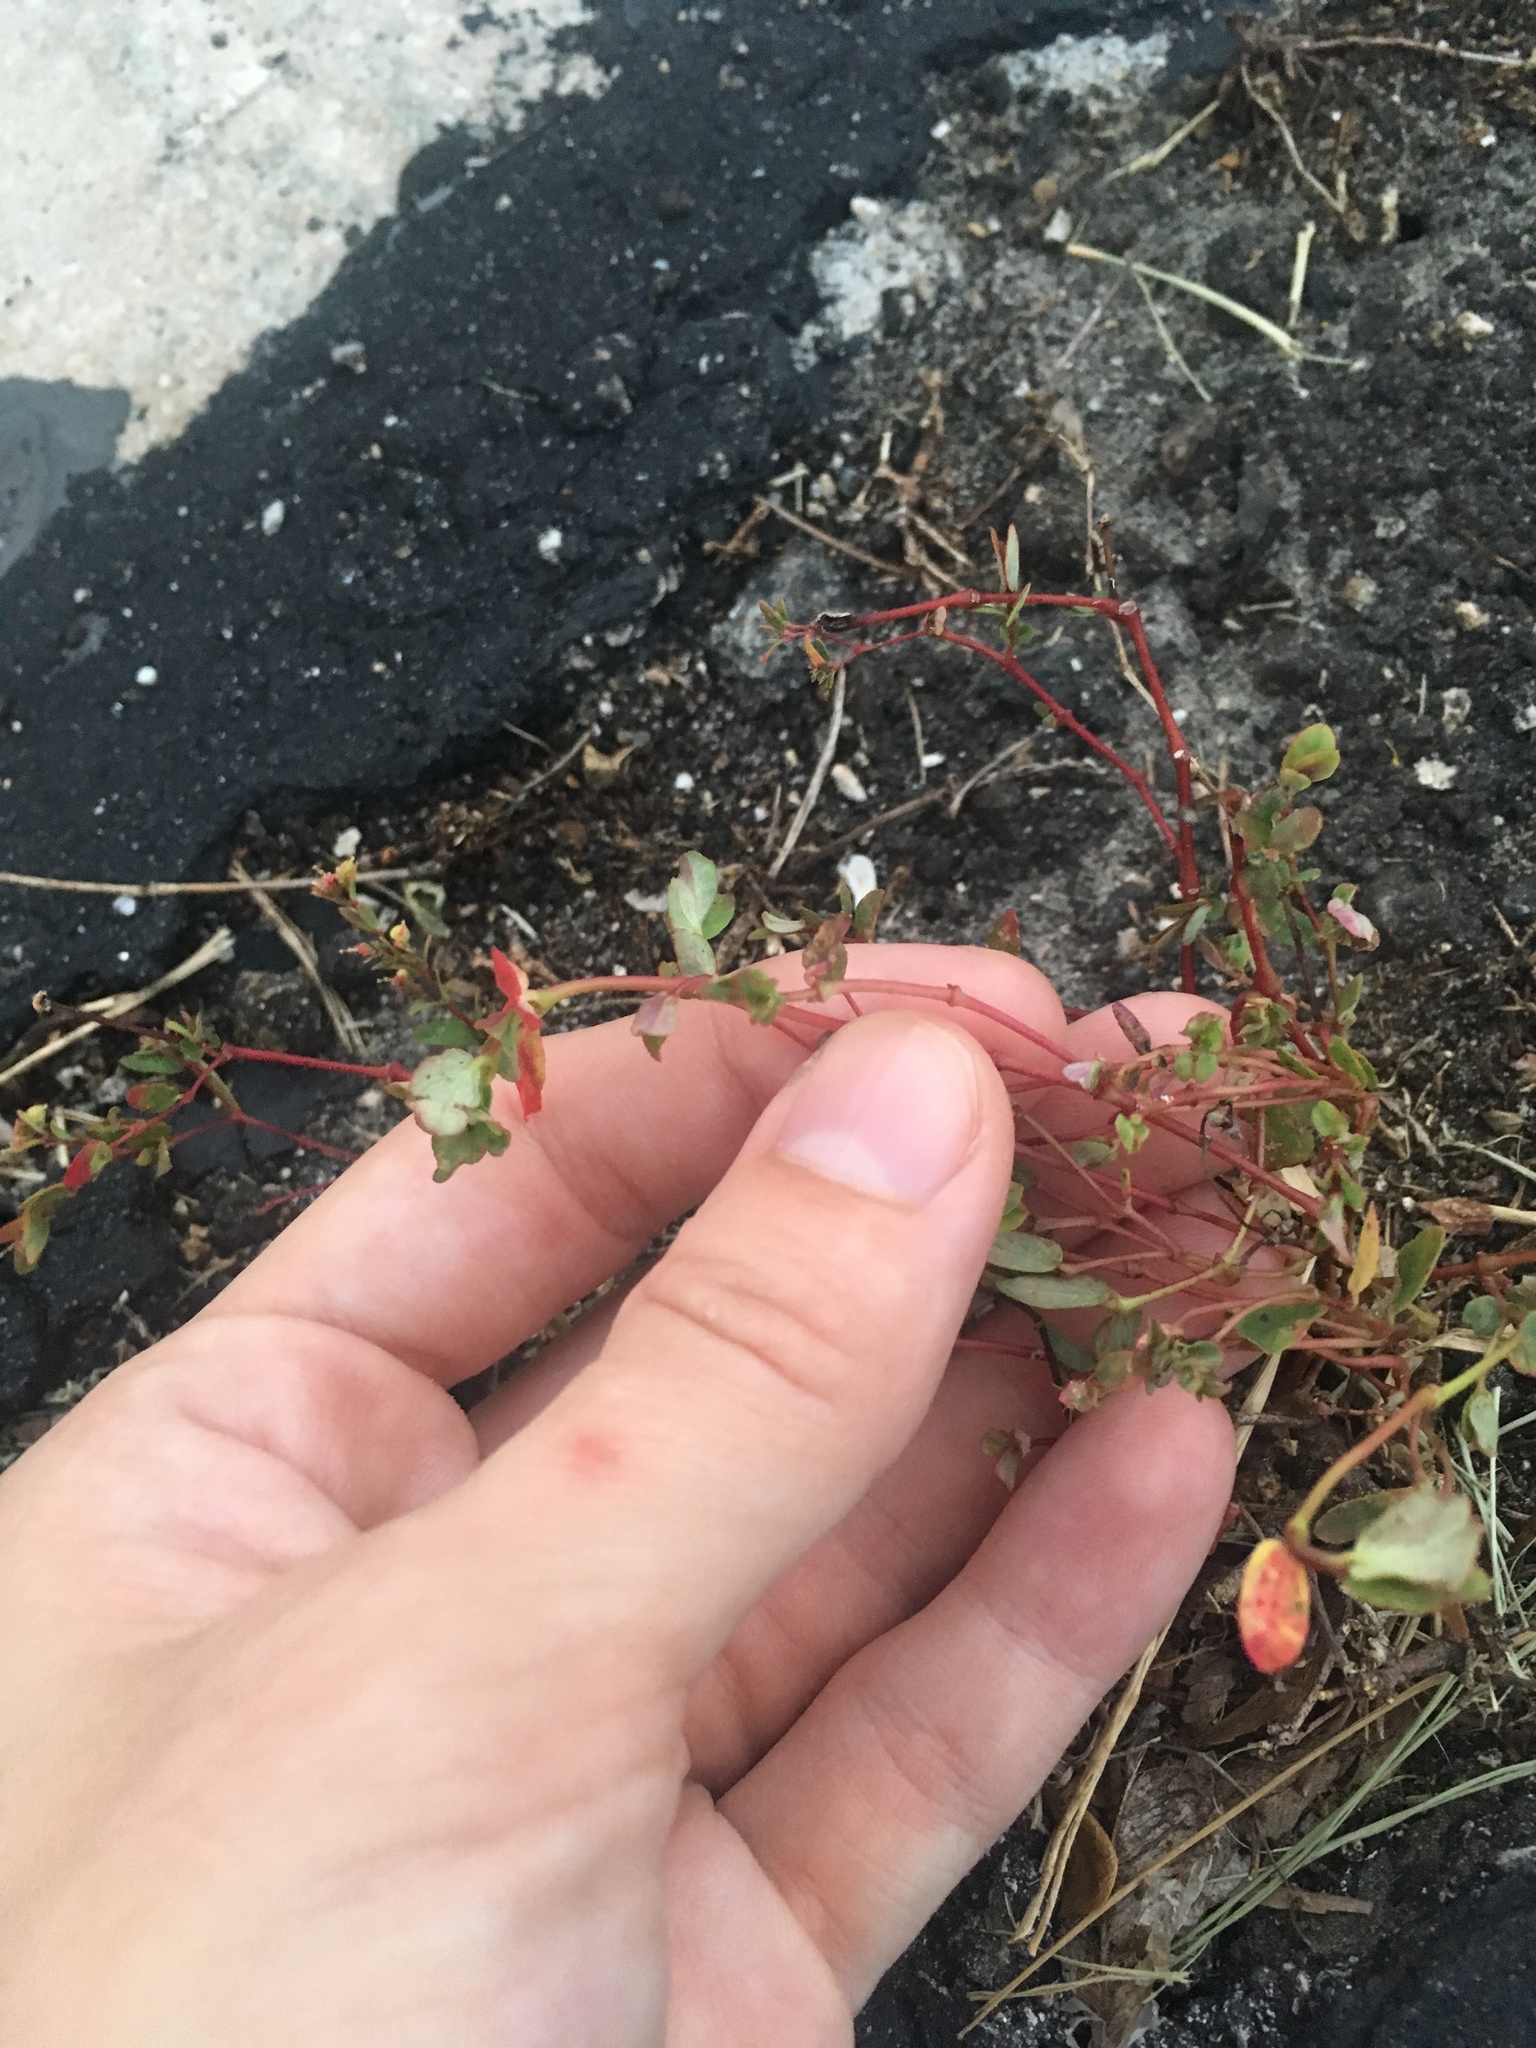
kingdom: Plantae
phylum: Tracheophyta
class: Magnoliopsida
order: Malpighiales
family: Euphorbiaceae
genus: Euphorbia
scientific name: Euphorbia hyssopifolia
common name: Hyssopleaf sandmat
